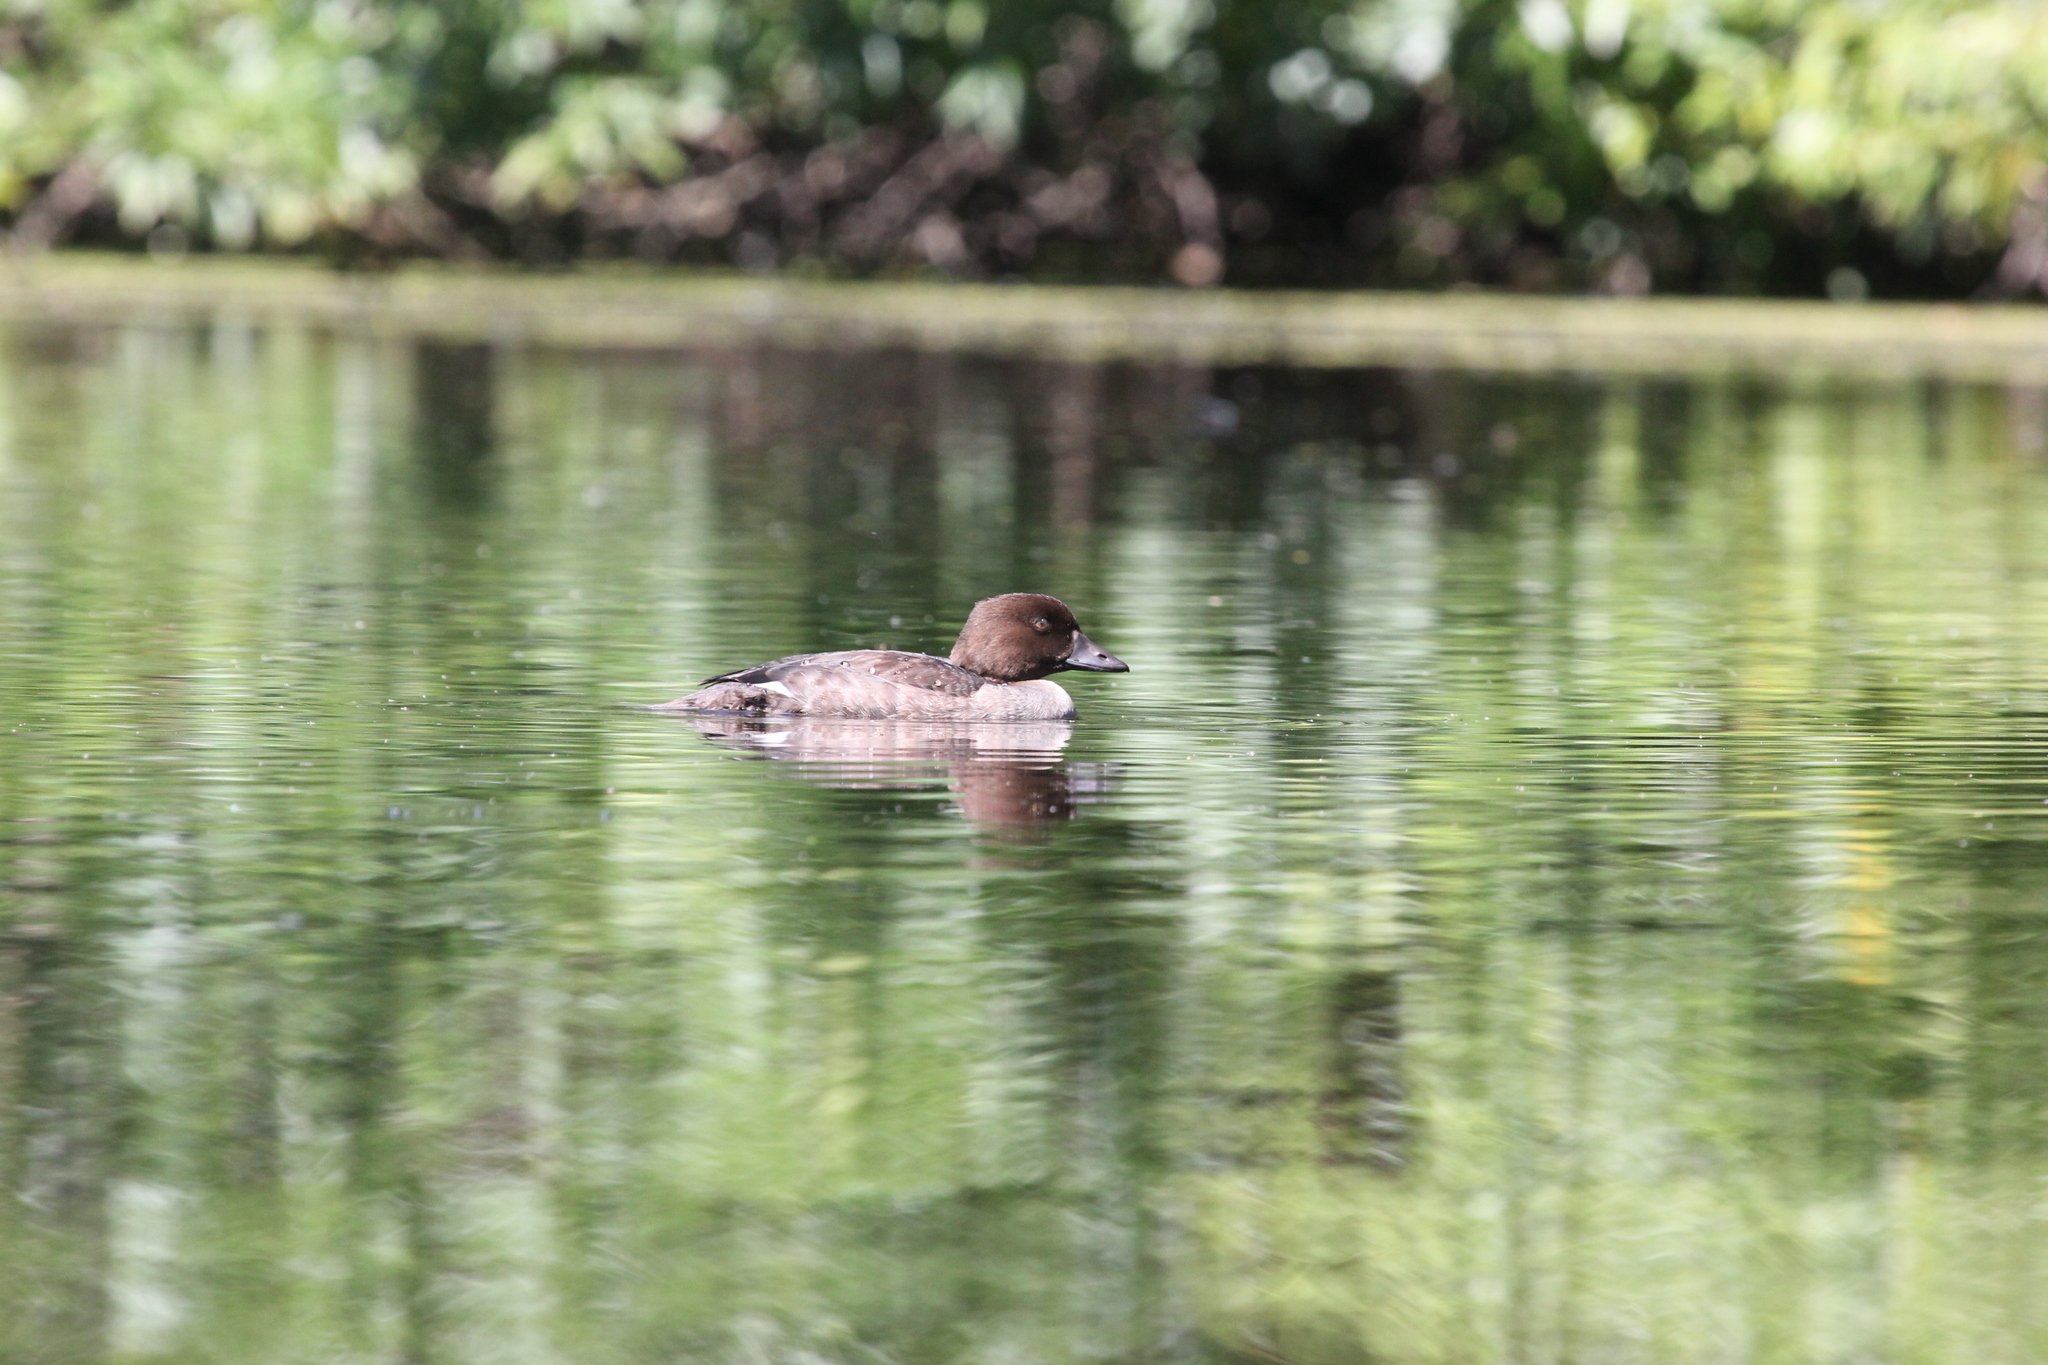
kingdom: Animalia
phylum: Chordata
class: Aves
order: Anseriformes
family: Anatidae
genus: Bucephala
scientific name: Bucephala clangula
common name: Common goldeneye
